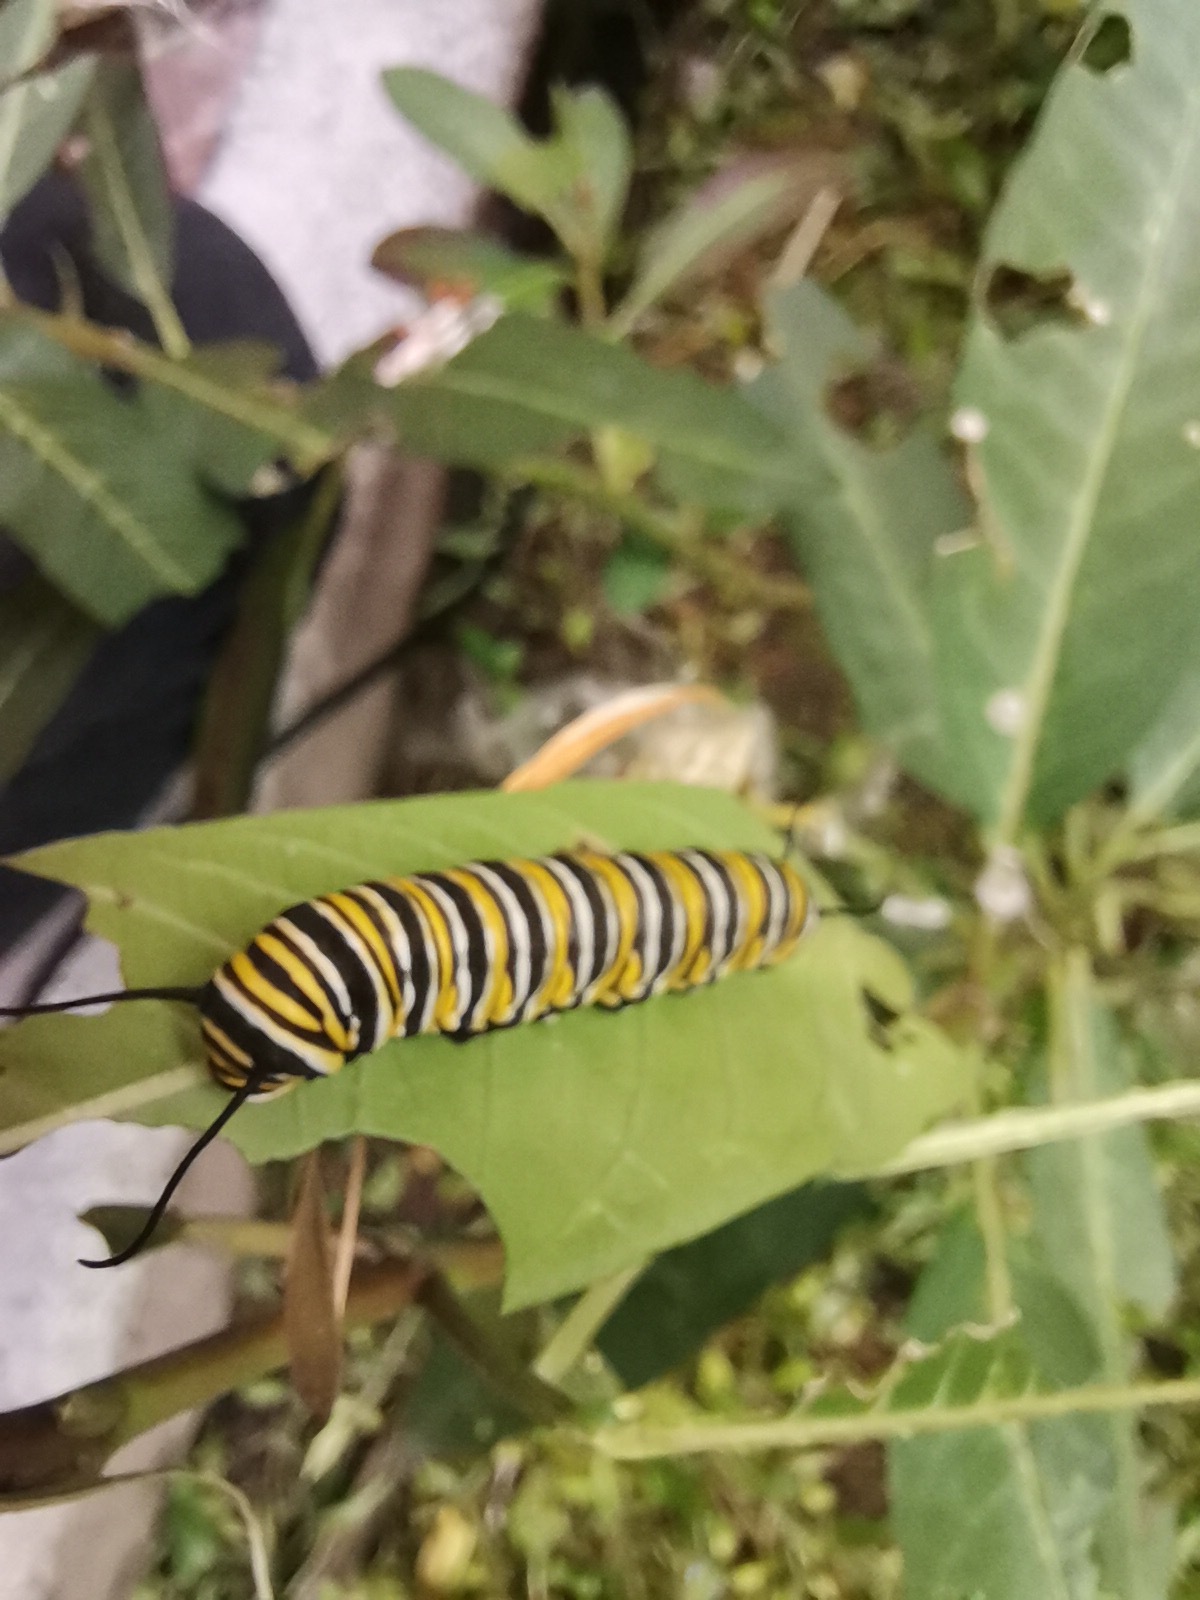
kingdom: Animalia
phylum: Arthropoda
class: Insecta
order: Lepidoptera
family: Nymphalidae
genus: Danaus
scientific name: Danaus plexippus
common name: Monarch
